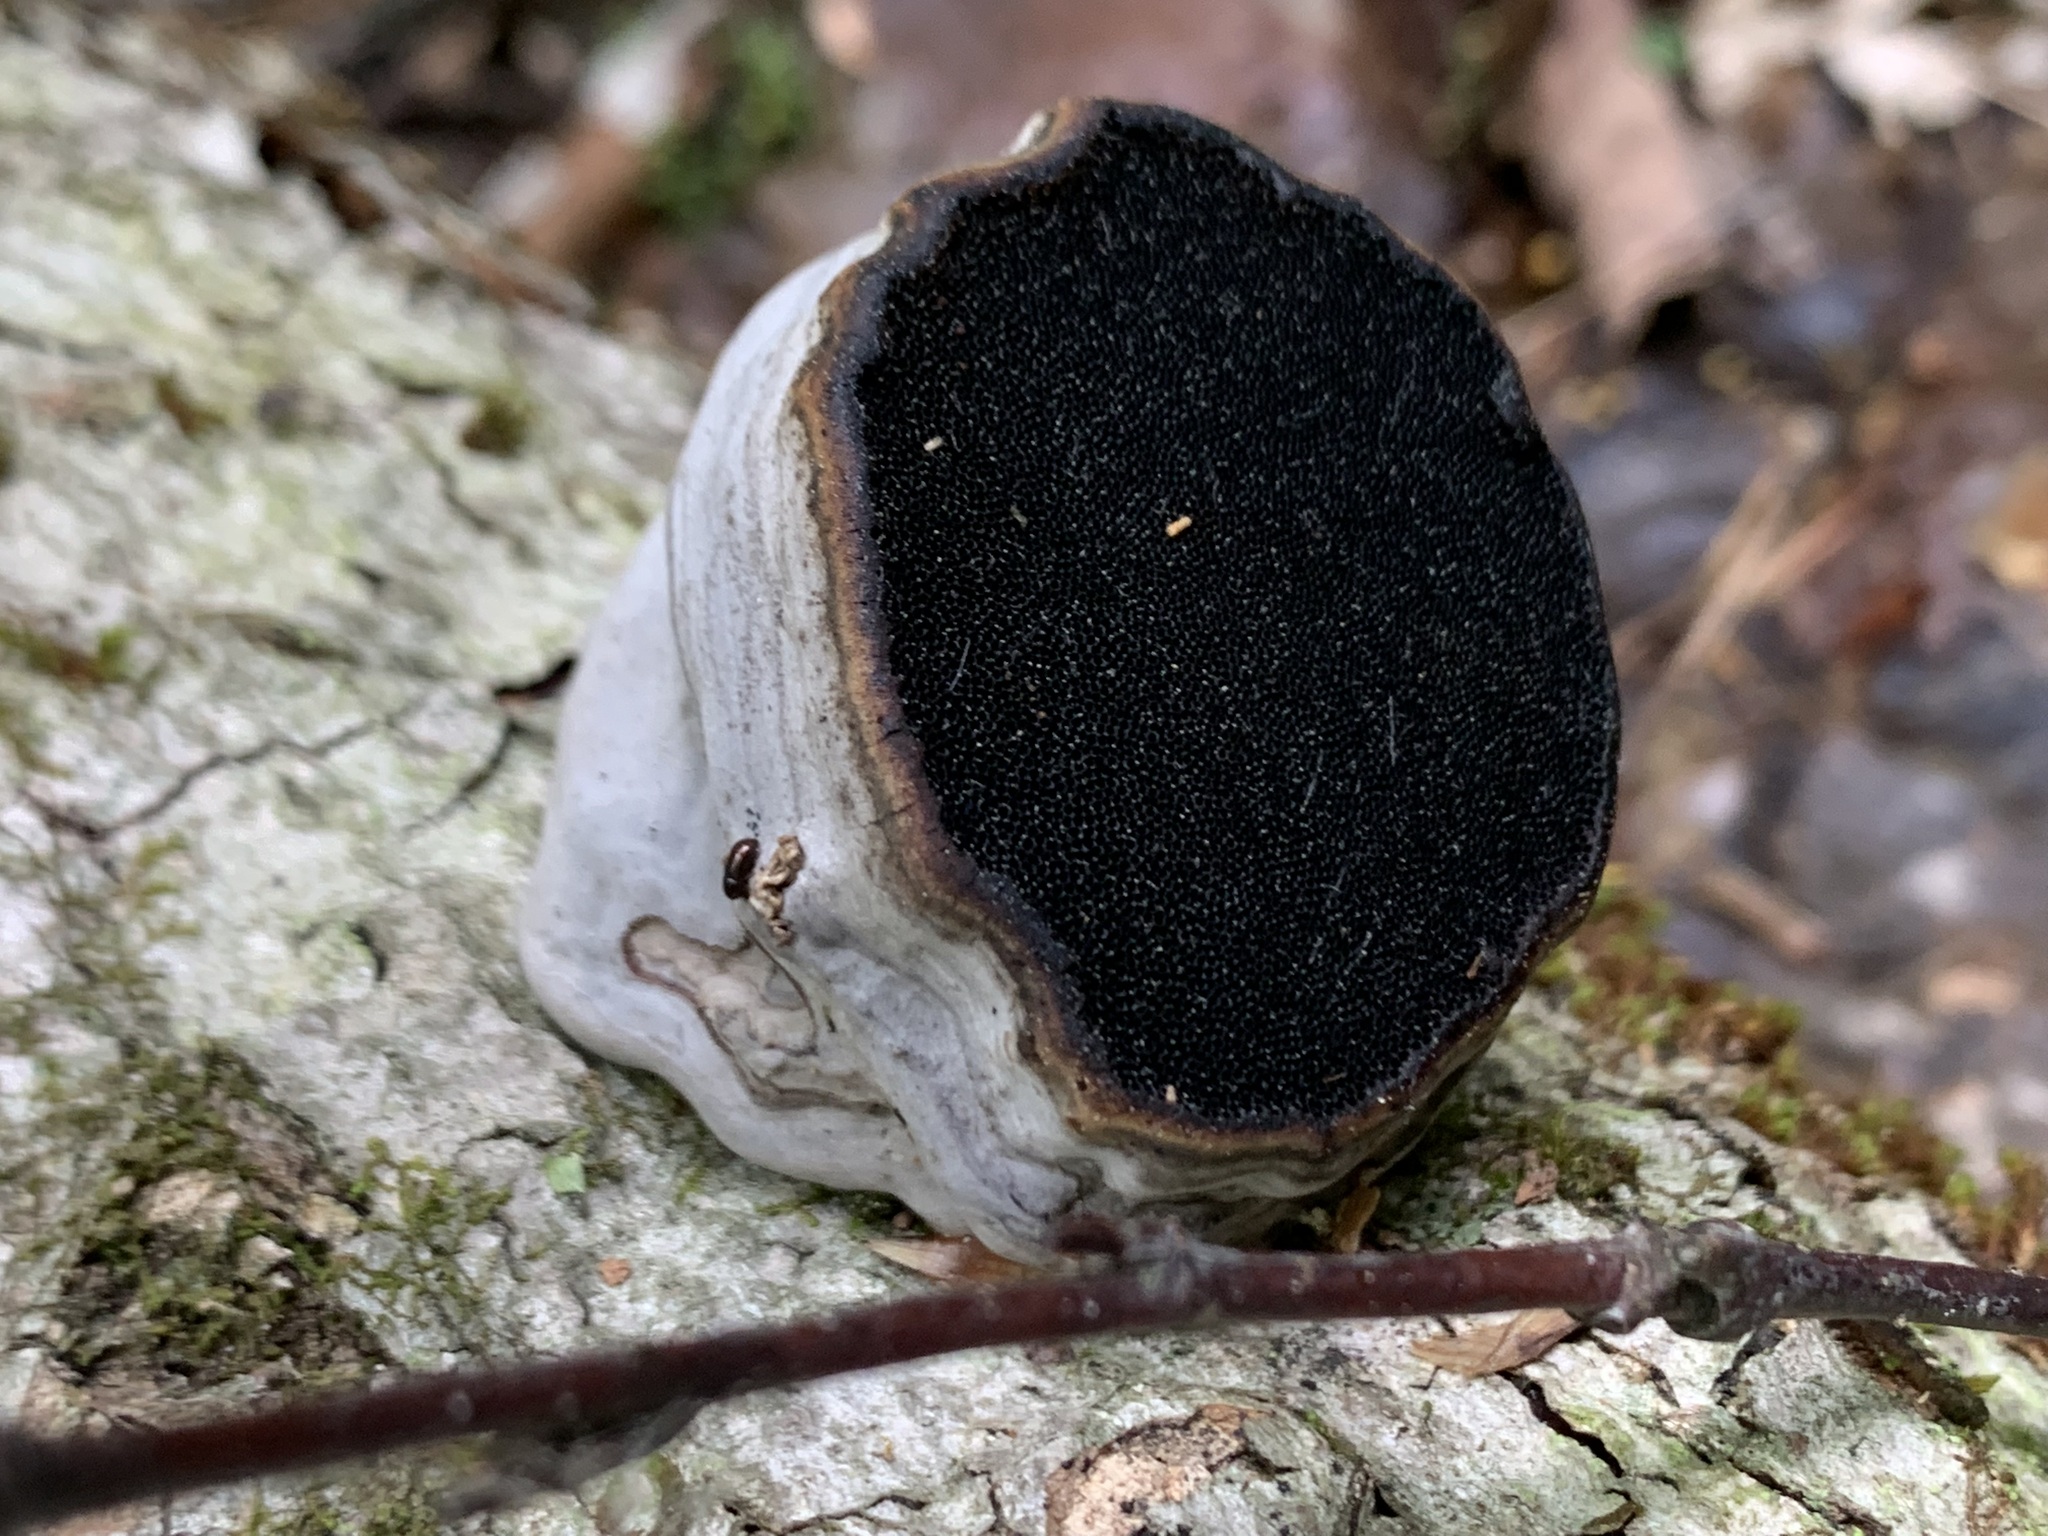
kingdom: Fungi
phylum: Basidiomycota
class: Agaricomycetes
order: Polyporales
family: Polyporaceae
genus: Fomes
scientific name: Fomes fomentarius
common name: Hoof fungus
